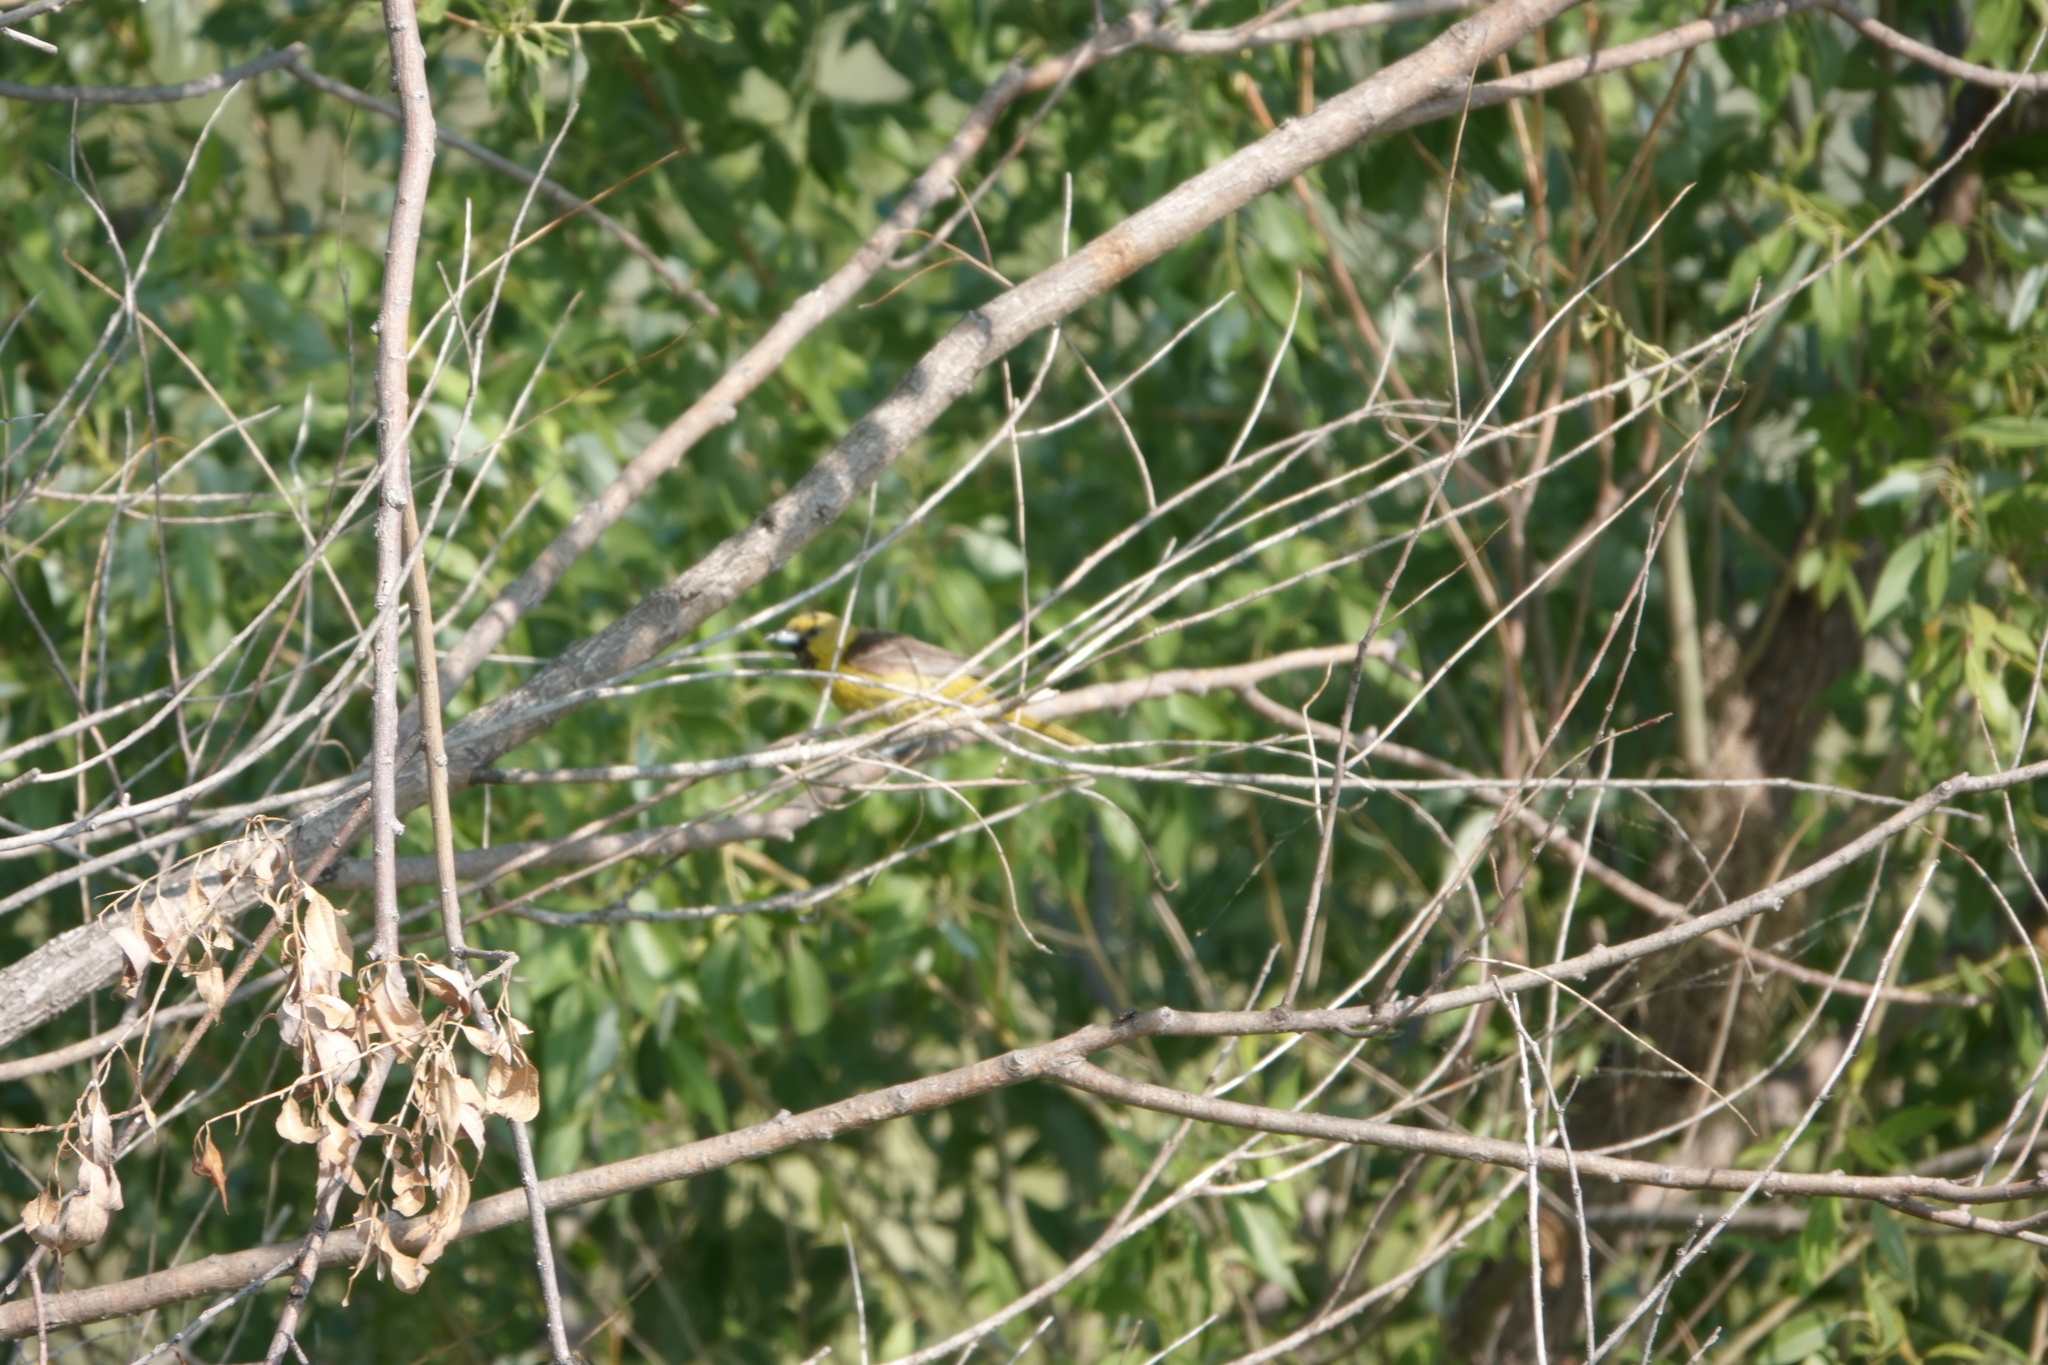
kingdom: Animalia
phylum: Chordata
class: Aves
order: Passeriformes
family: Icteridae
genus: Icterus
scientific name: Icterus spurius
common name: Orchard oriole
